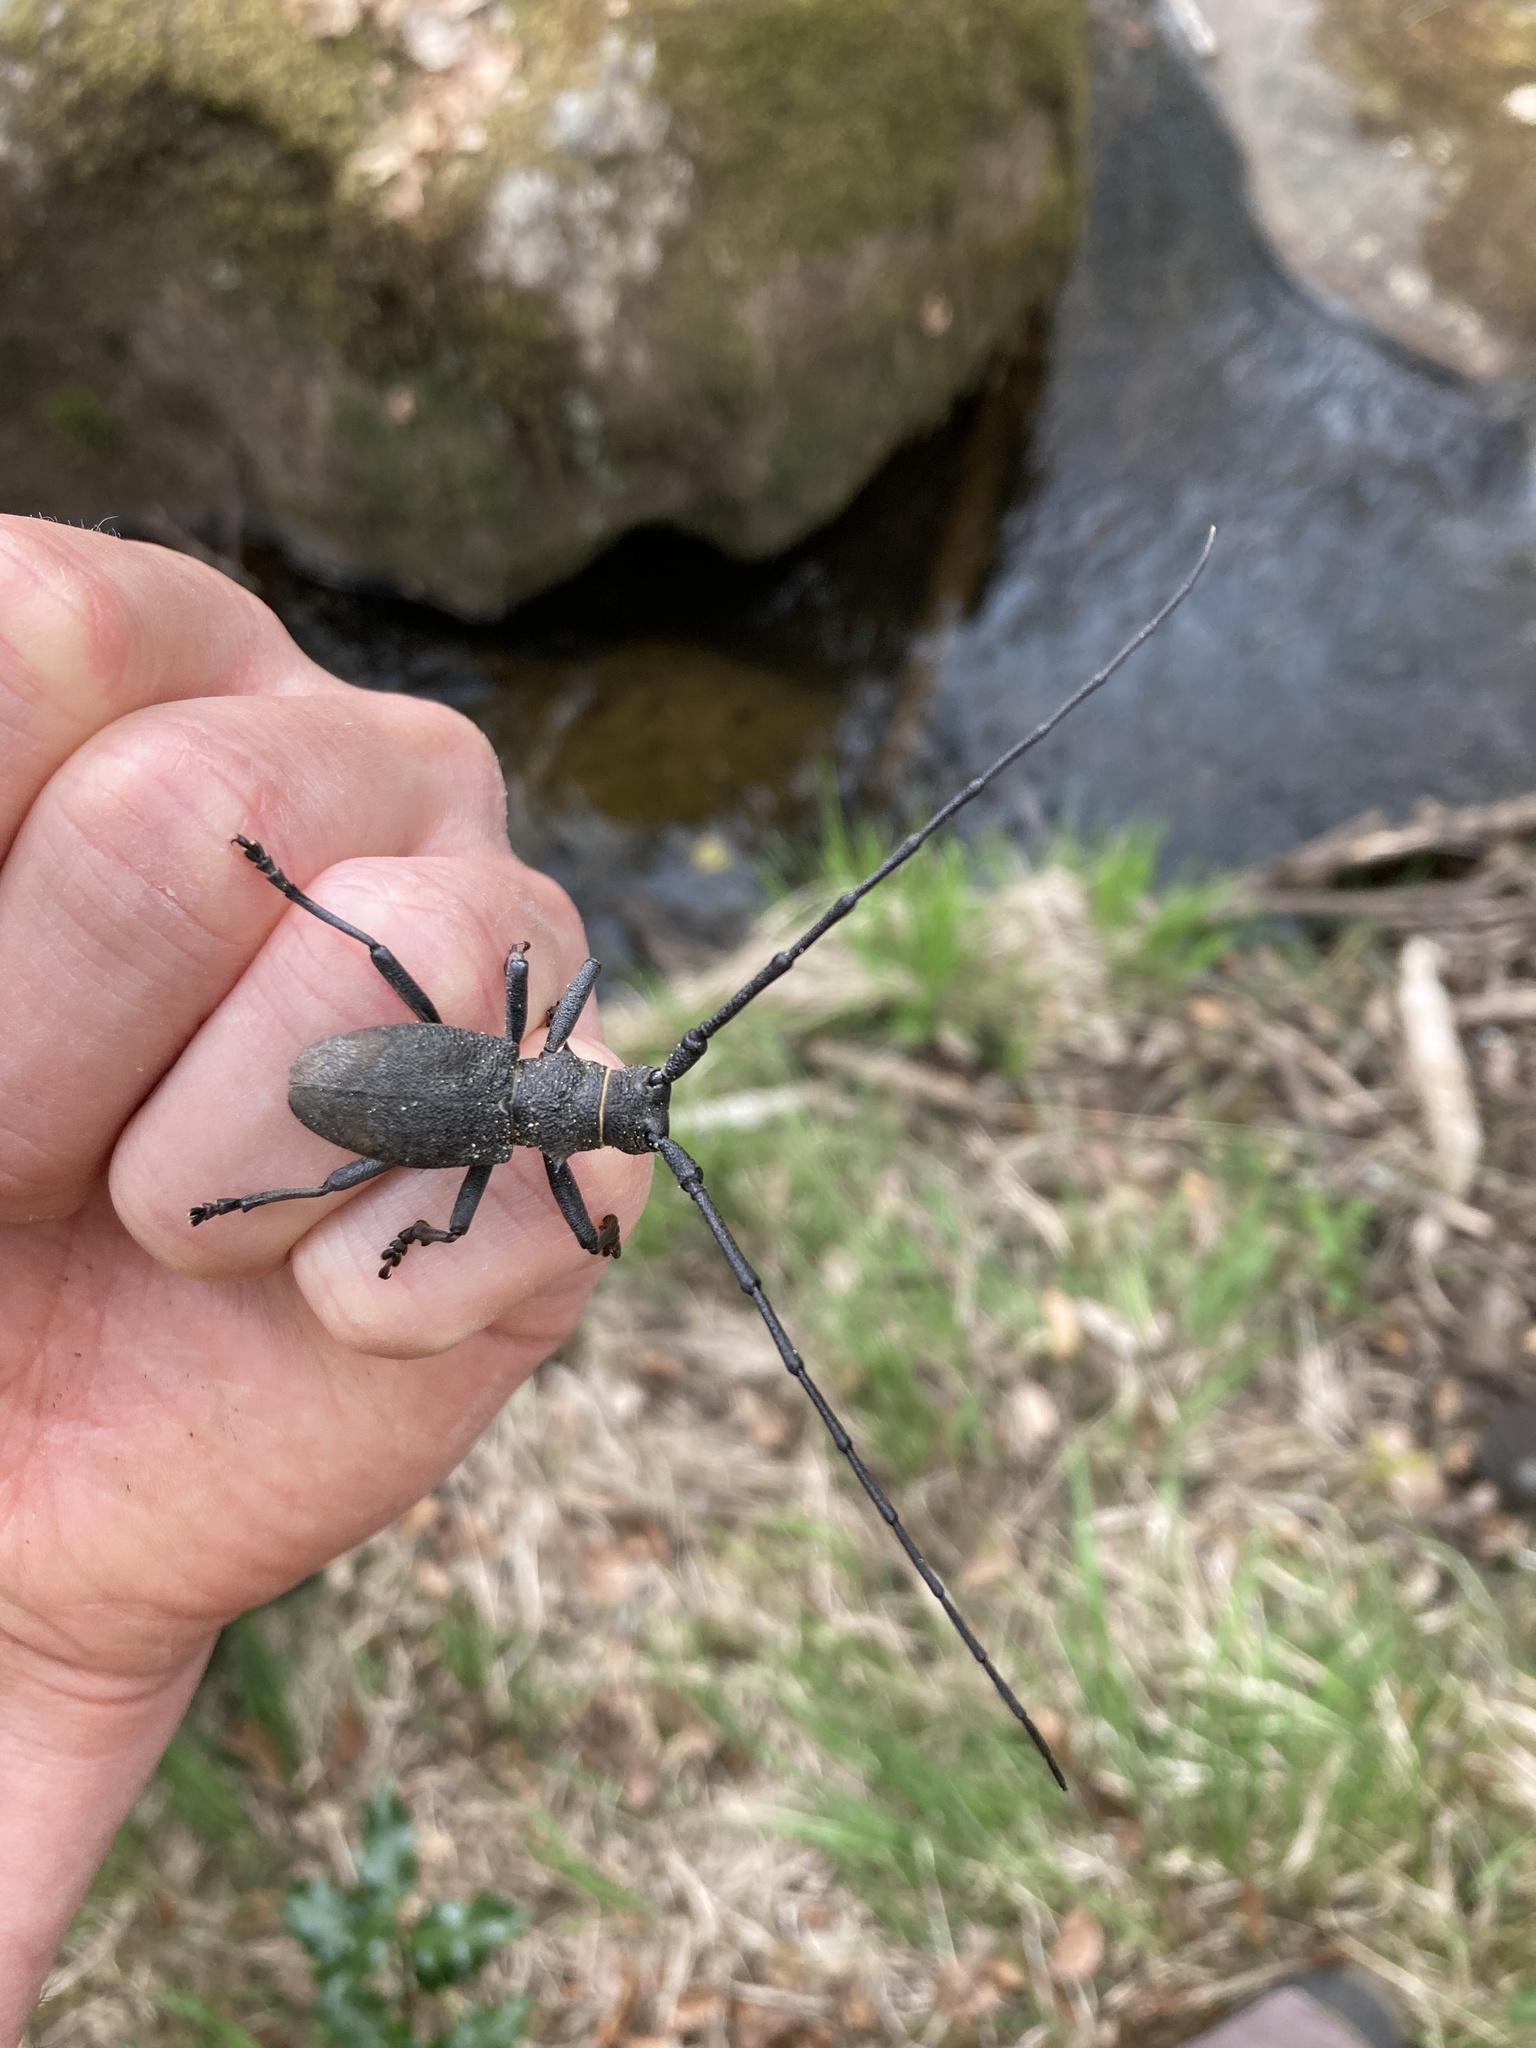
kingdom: Animalia
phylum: Arthropoda
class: Insecta
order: Coleoptera
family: Cerambycidae
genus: Morimus
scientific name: Morimus asper
